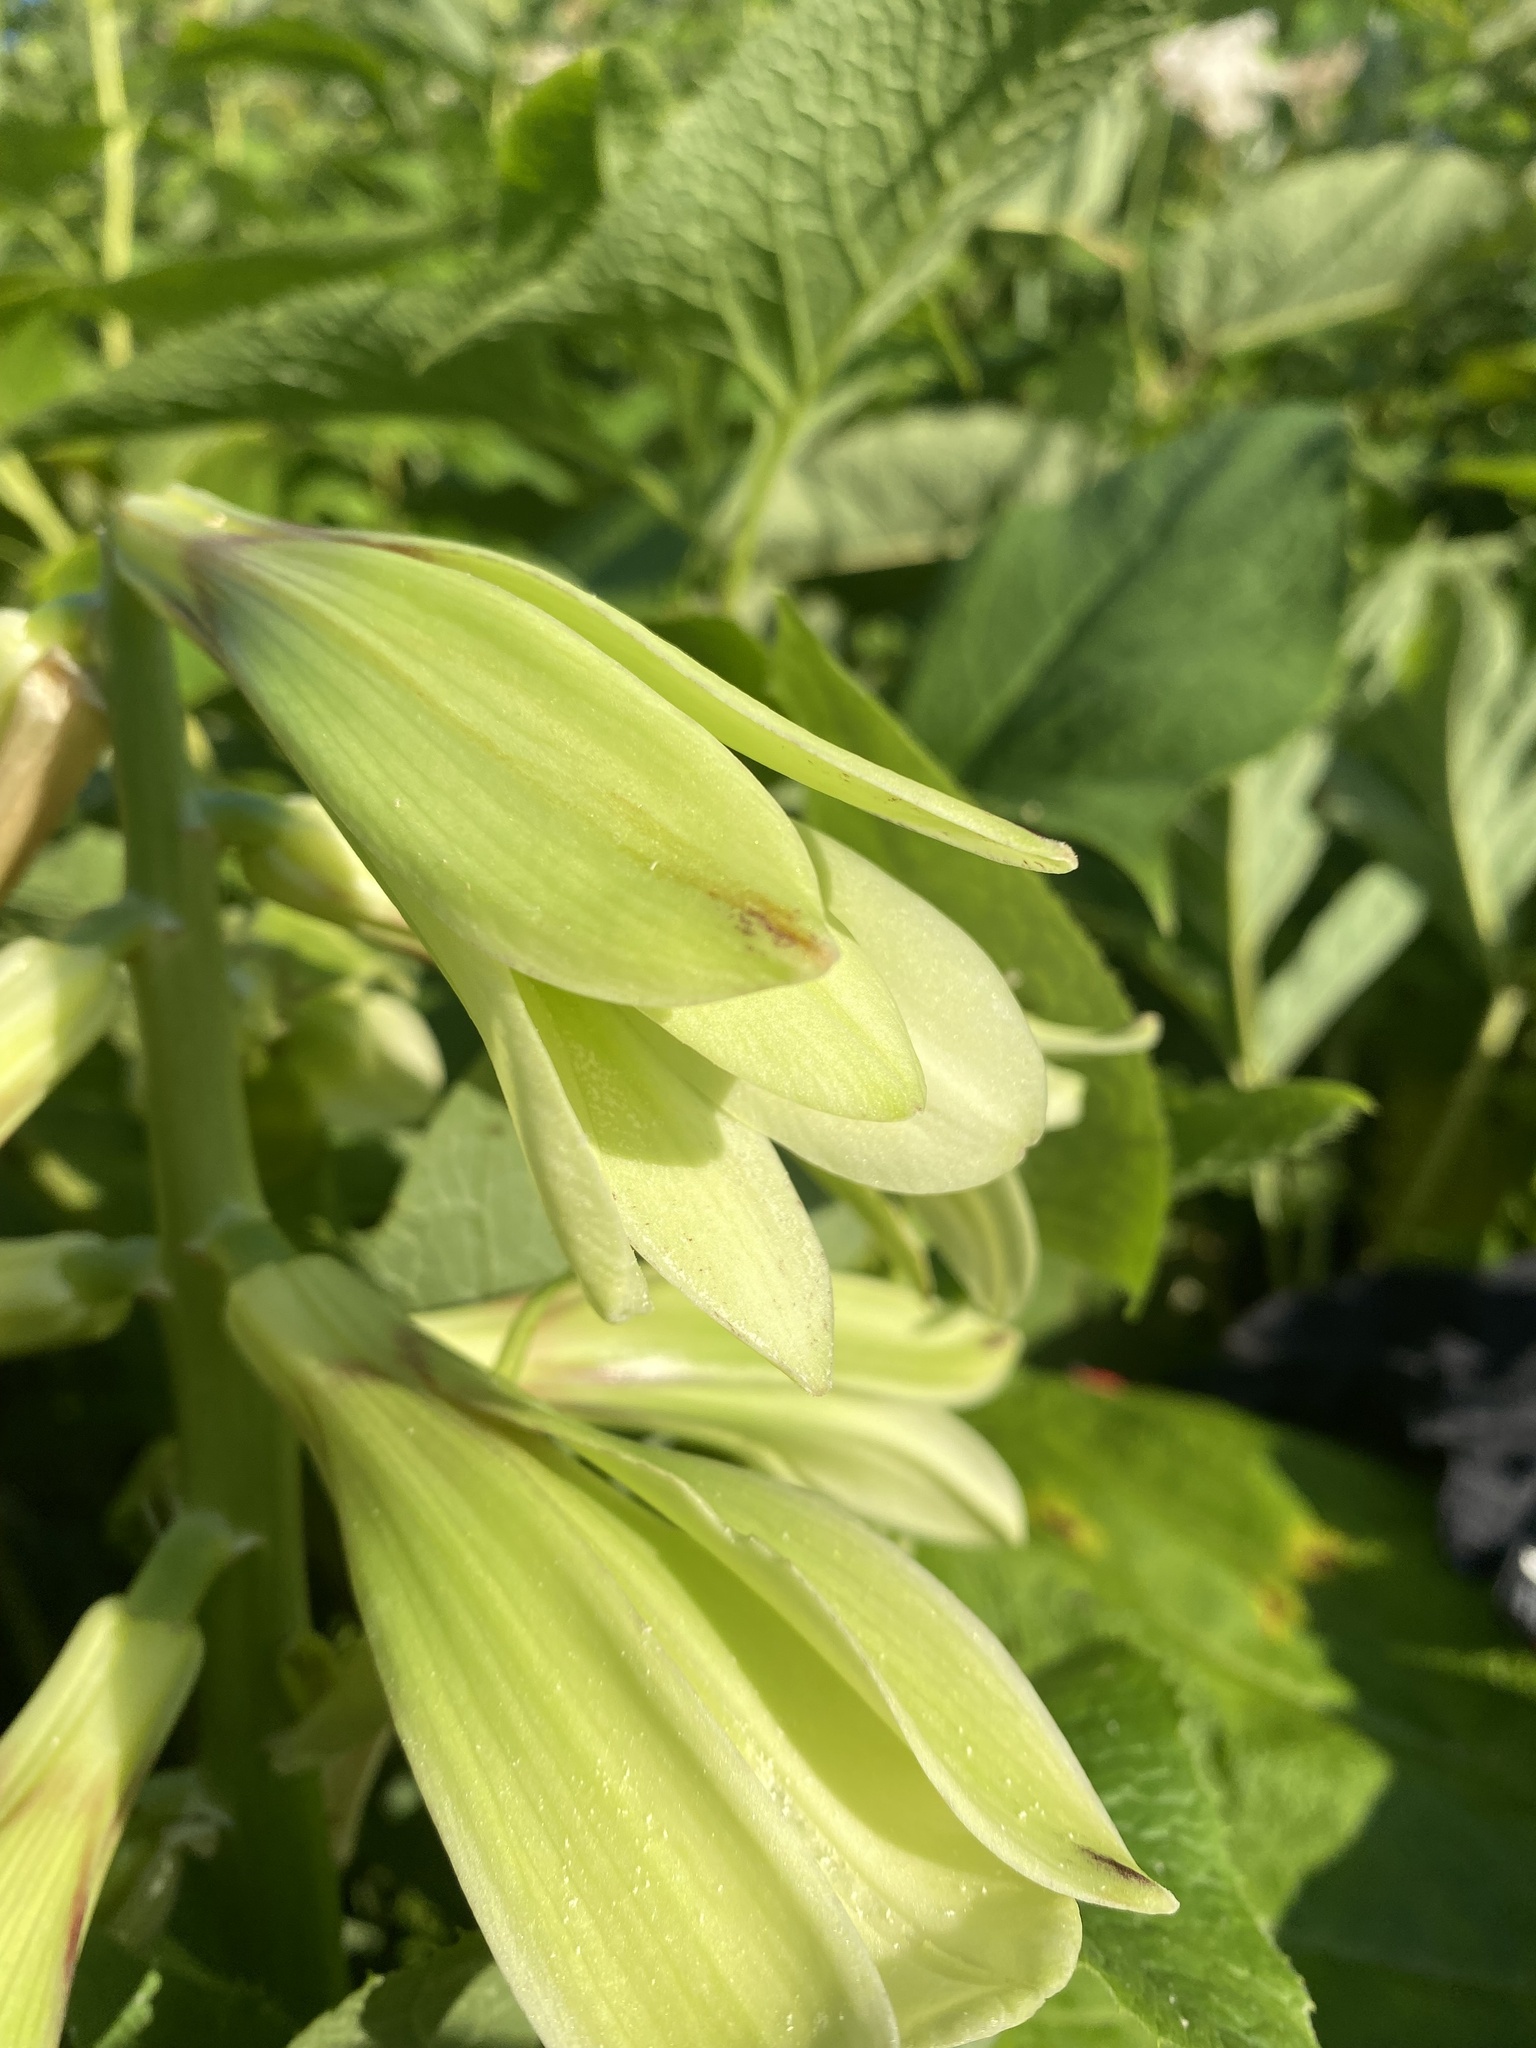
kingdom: Plantae
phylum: Tracheophyta
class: Liliopsida
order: Liliales
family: Liliaceae
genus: Cardiocrinum
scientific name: Cardiocrinum cordatum
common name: Lily
